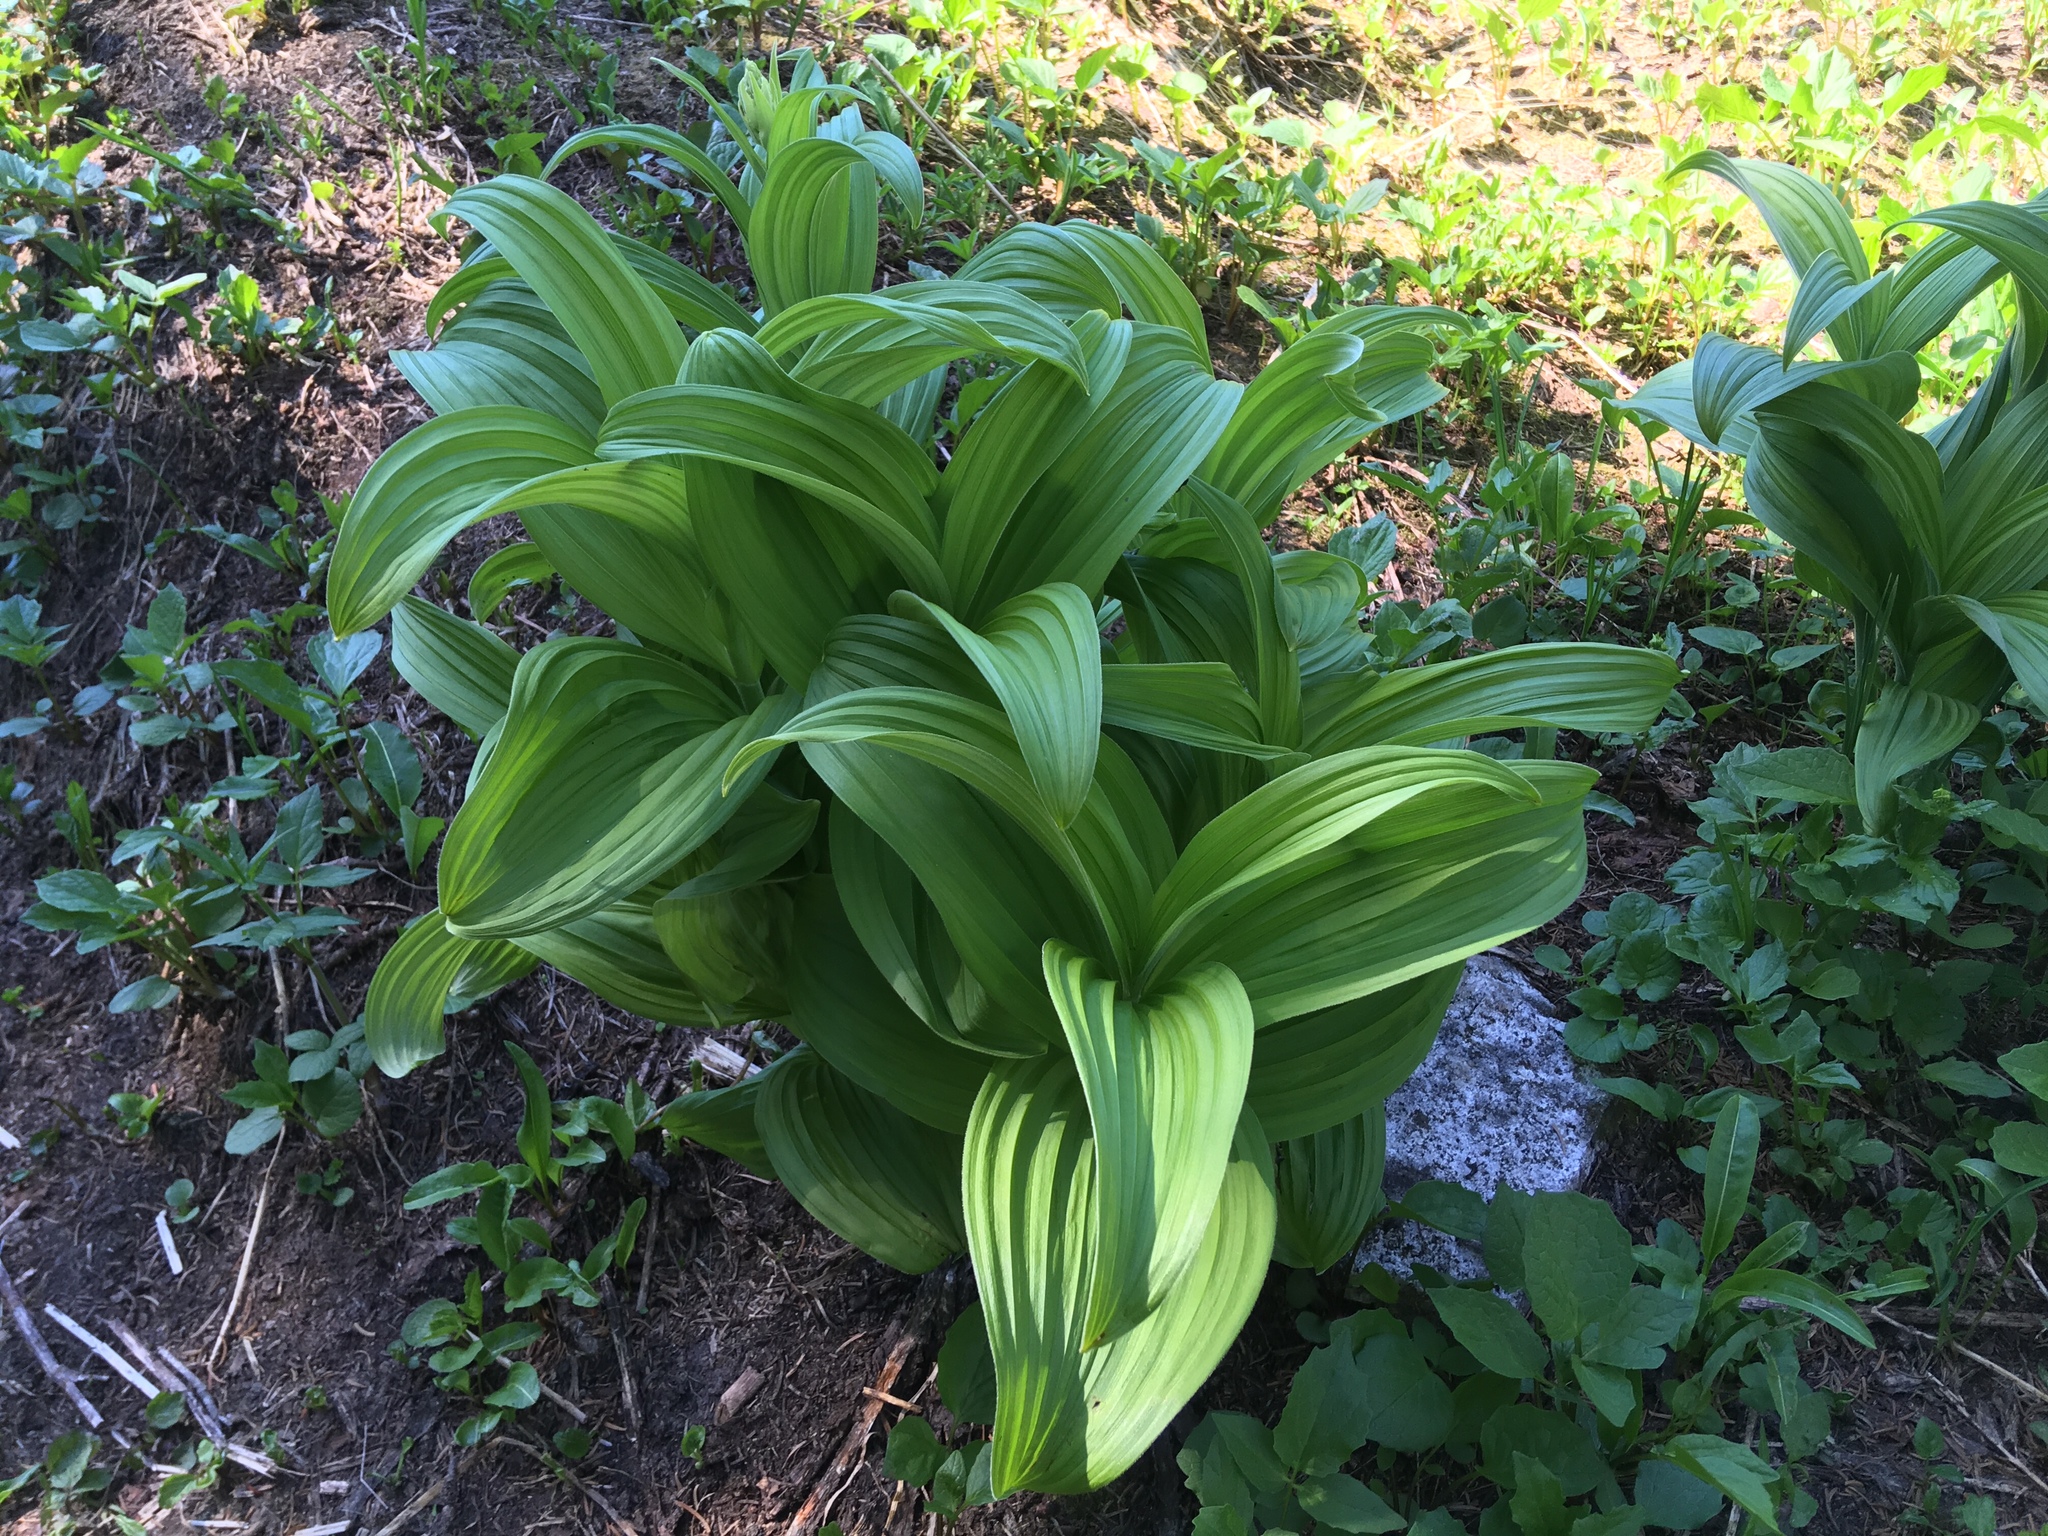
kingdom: Plantae
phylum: Tracheophyta
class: Liliopsida
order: Liliales
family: Melanthiaceae
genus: Veratrum
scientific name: Veratrum viride
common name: American false hellebore
